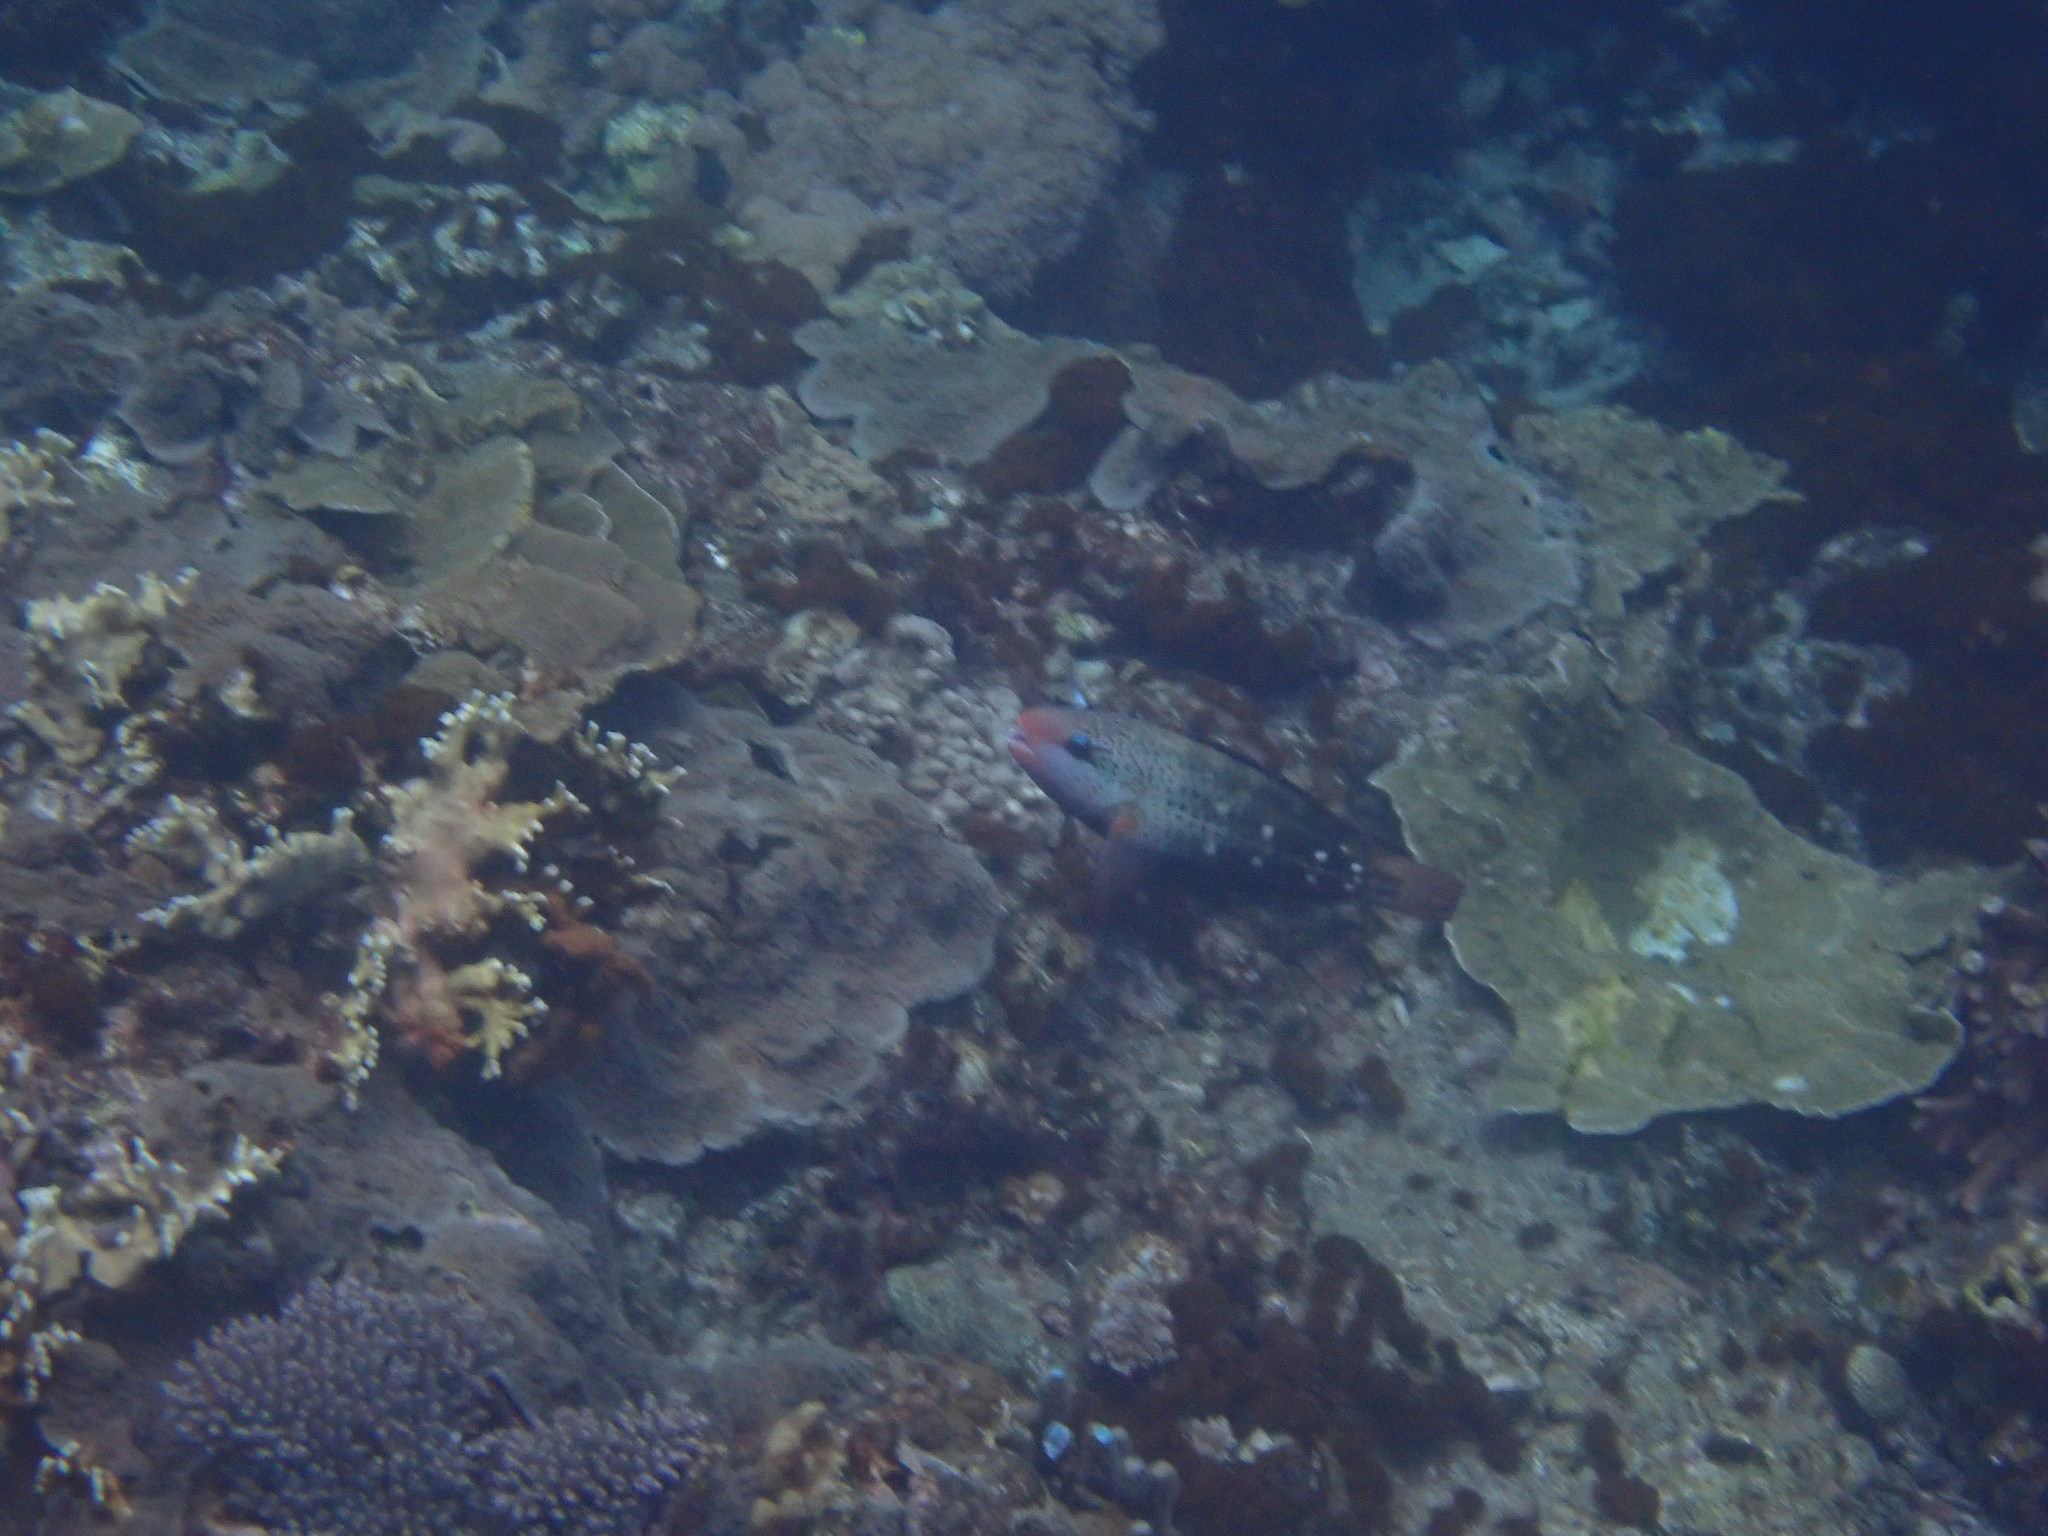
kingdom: Animalia
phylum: Chordata
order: Perciformes
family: Scaridae
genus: Chlorurus
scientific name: Chlorurus spilurus
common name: Bullethead parrotfish
